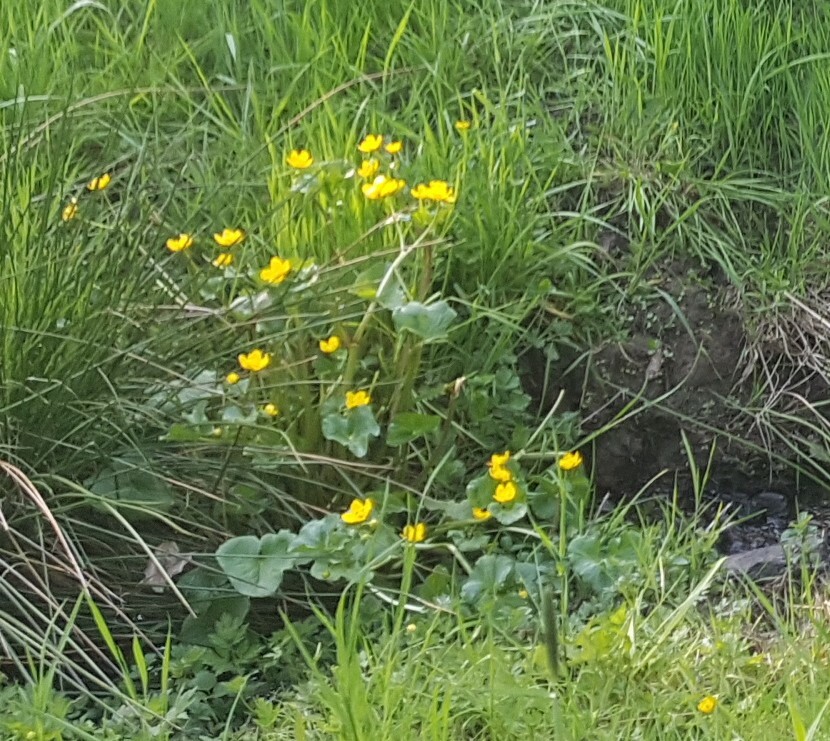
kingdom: Plantae
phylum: Tracheophyta
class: Magnoliopsida
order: Ranunculales
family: Ranunculaceae
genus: Caltha
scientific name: Caltha palustris
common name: Marsh marigold
